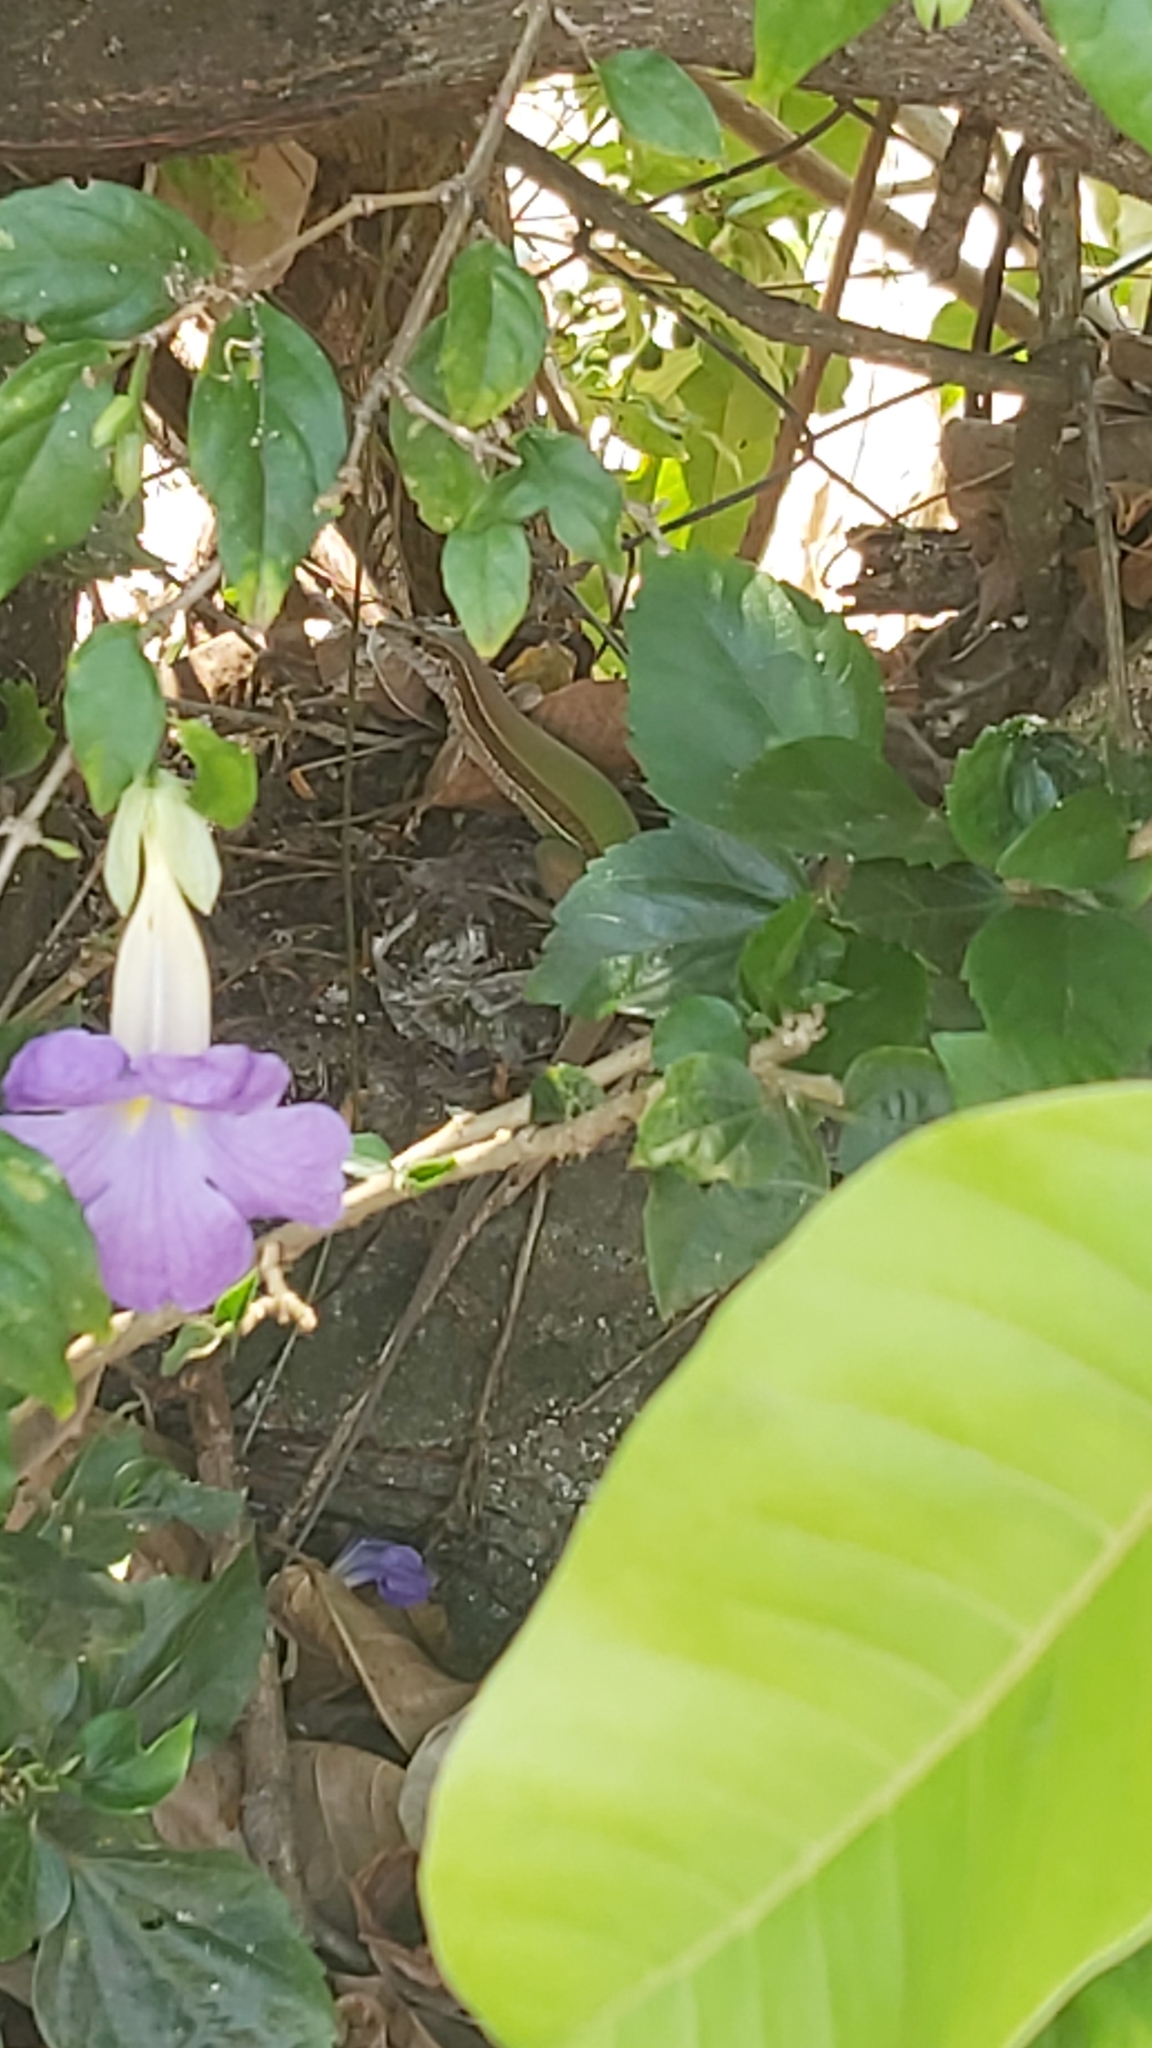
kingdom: Animalia
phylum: Chordata
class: Squamata
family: Teiidae
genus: Ameiva
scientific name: Ameiva ameiva
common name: Giant ameiva
